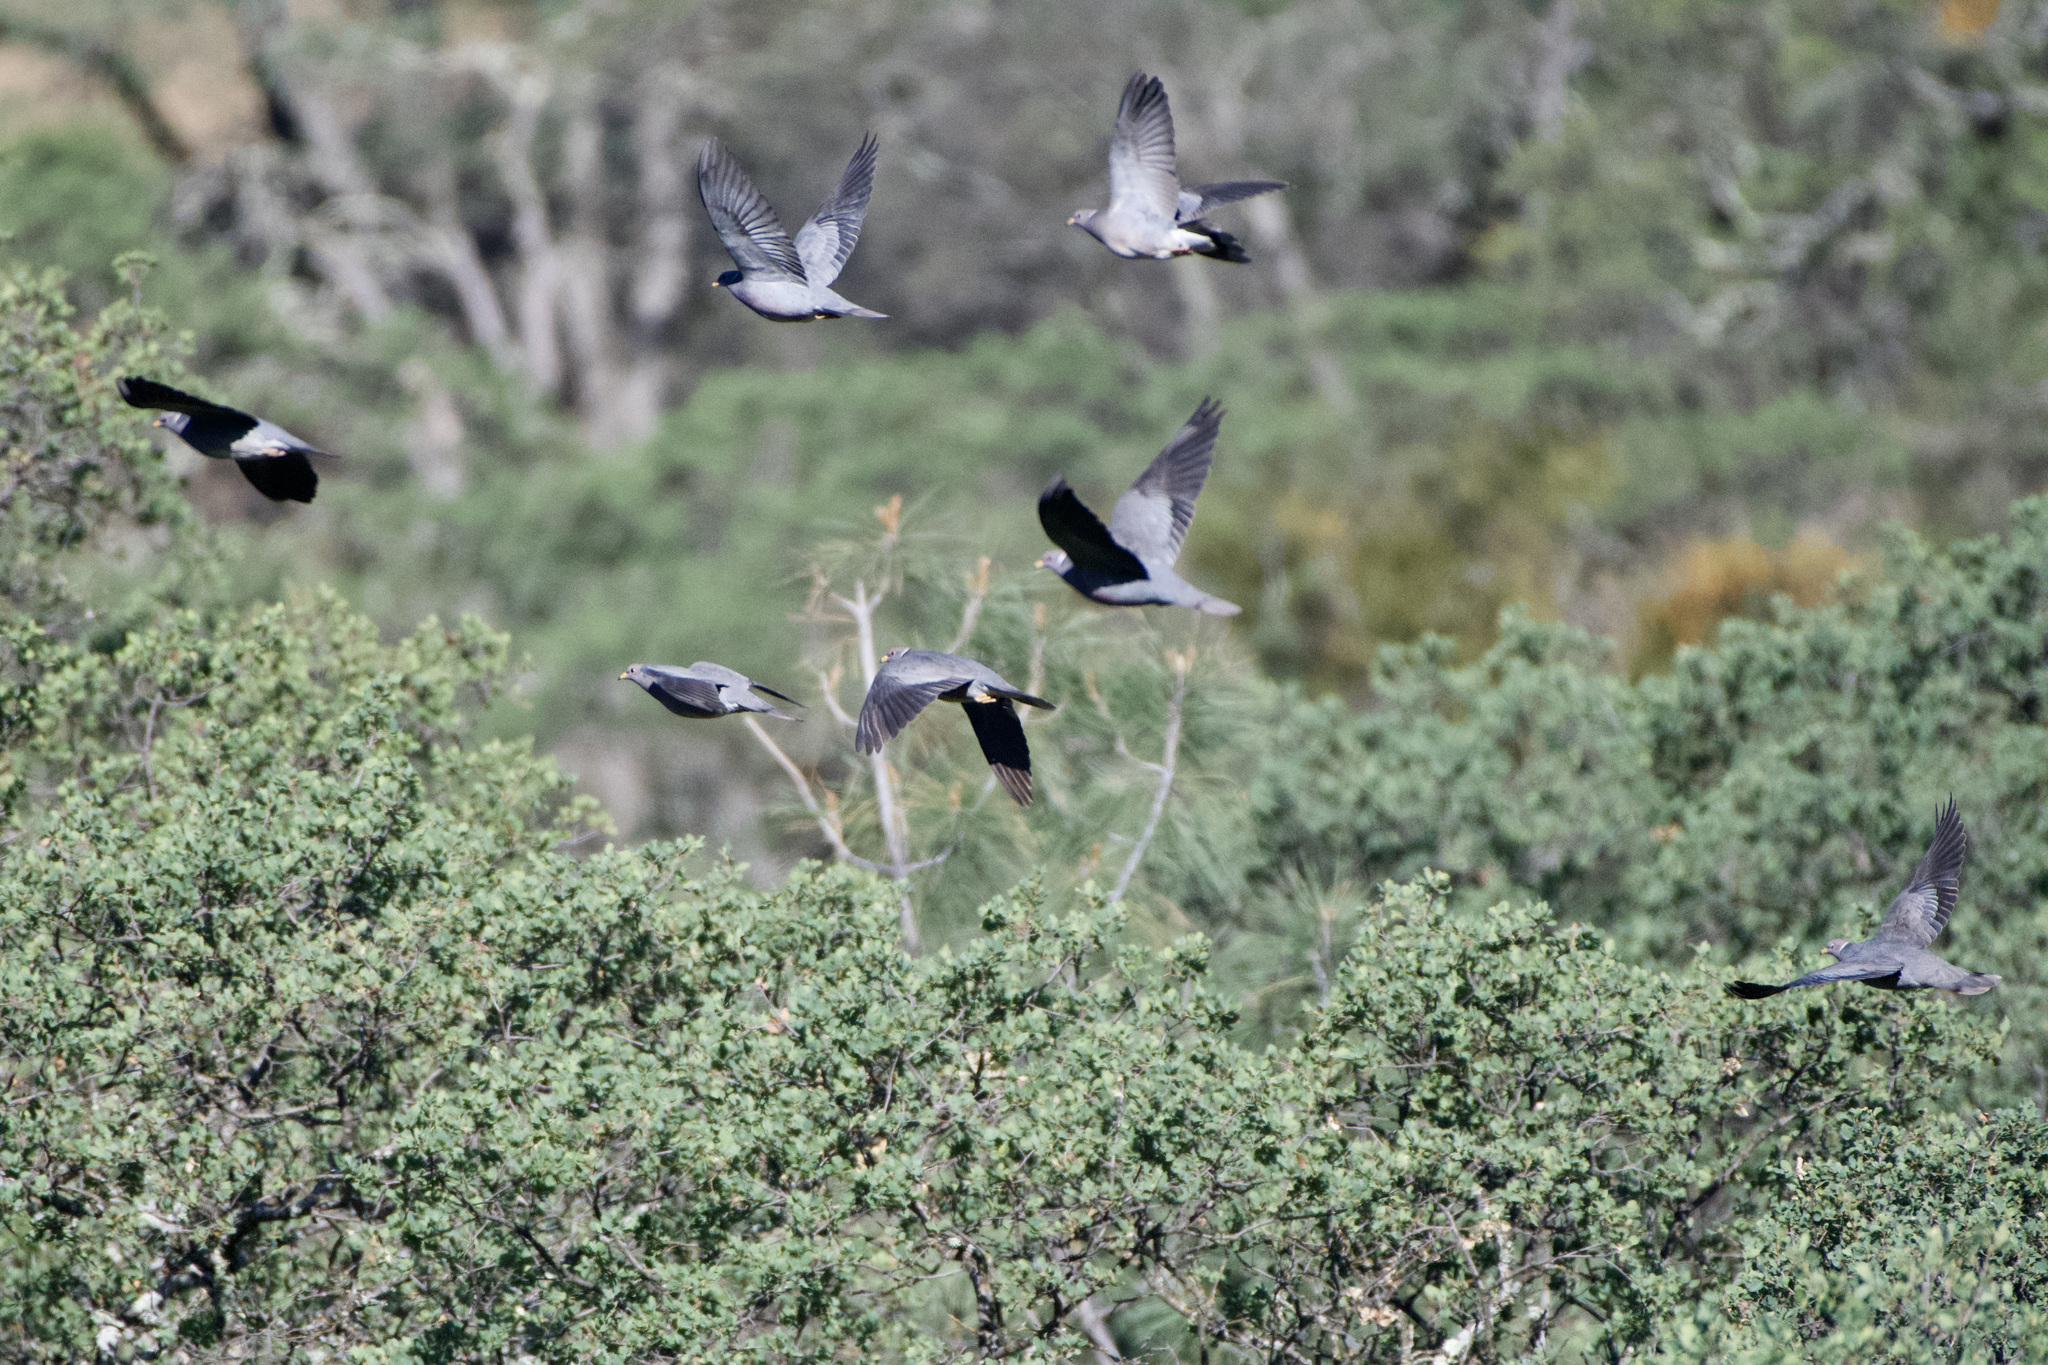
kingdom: Animalia
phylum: Chordata
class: Aves
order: Columbiformes
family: Columbidae
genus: Patagioenas
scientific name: Patagioenas fasciata
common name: Band-tailed pigeon
